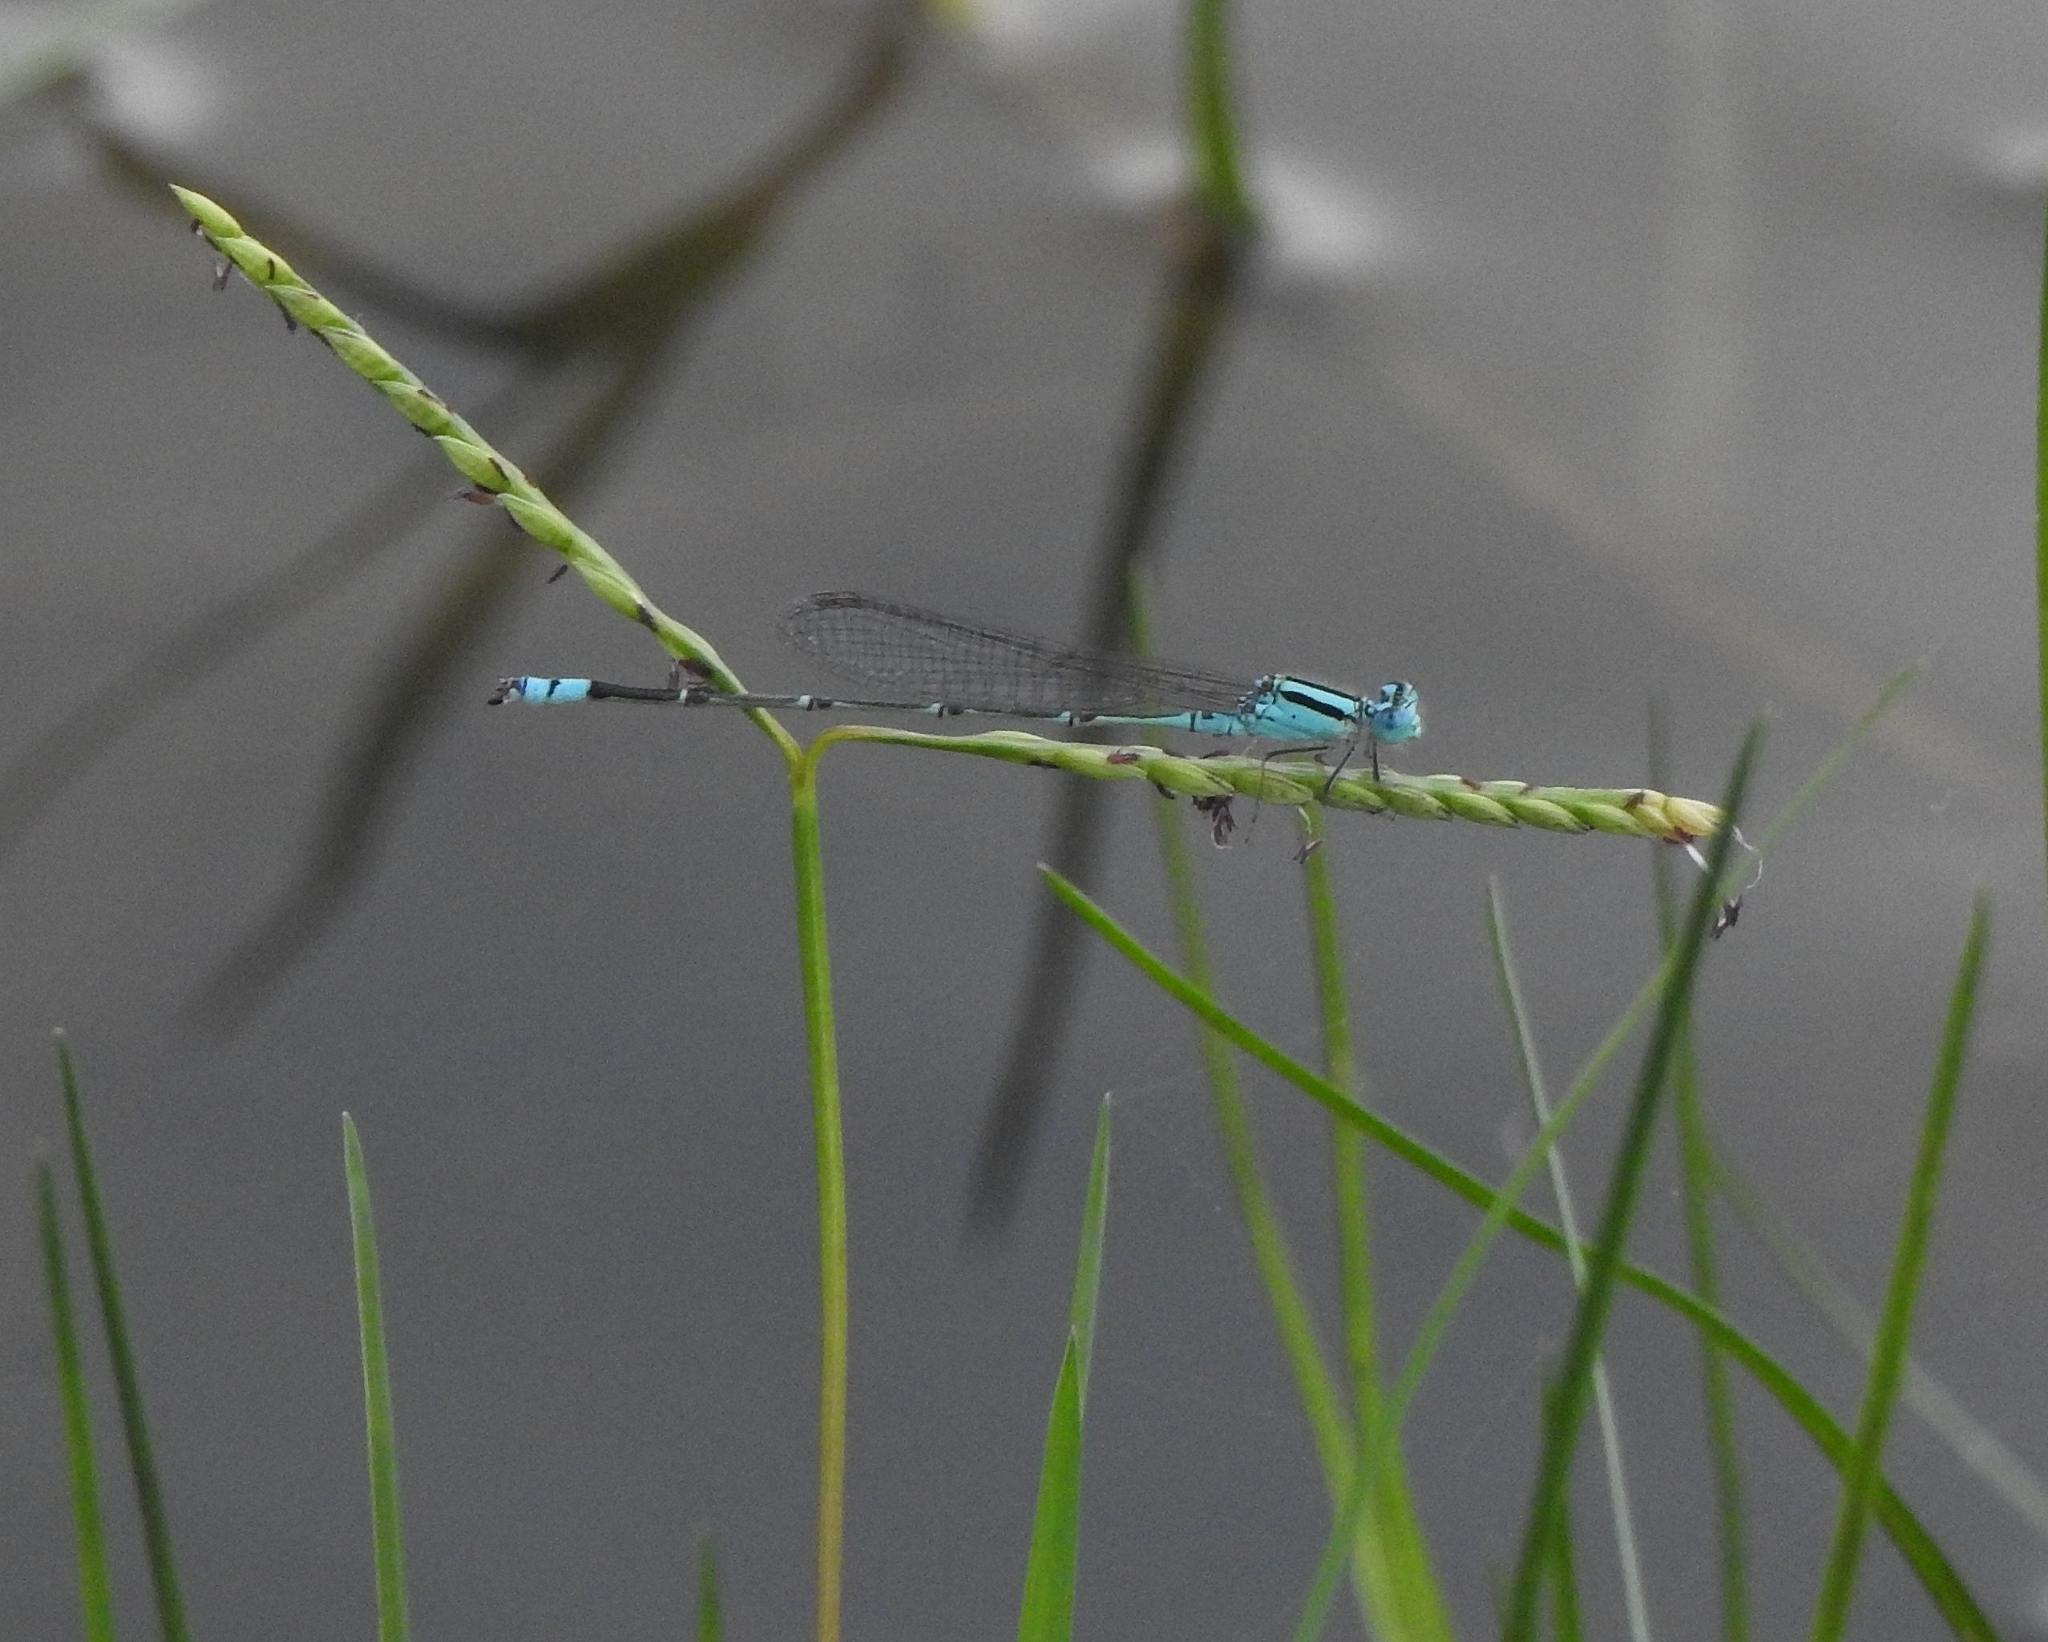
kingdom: Animalia
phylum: Arthropoda
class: Insecta
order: Odonata
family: Coenagrionidae
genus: Pseudagrion
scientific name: Pseudagrion microcephalum
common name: Blue riverdamsel
